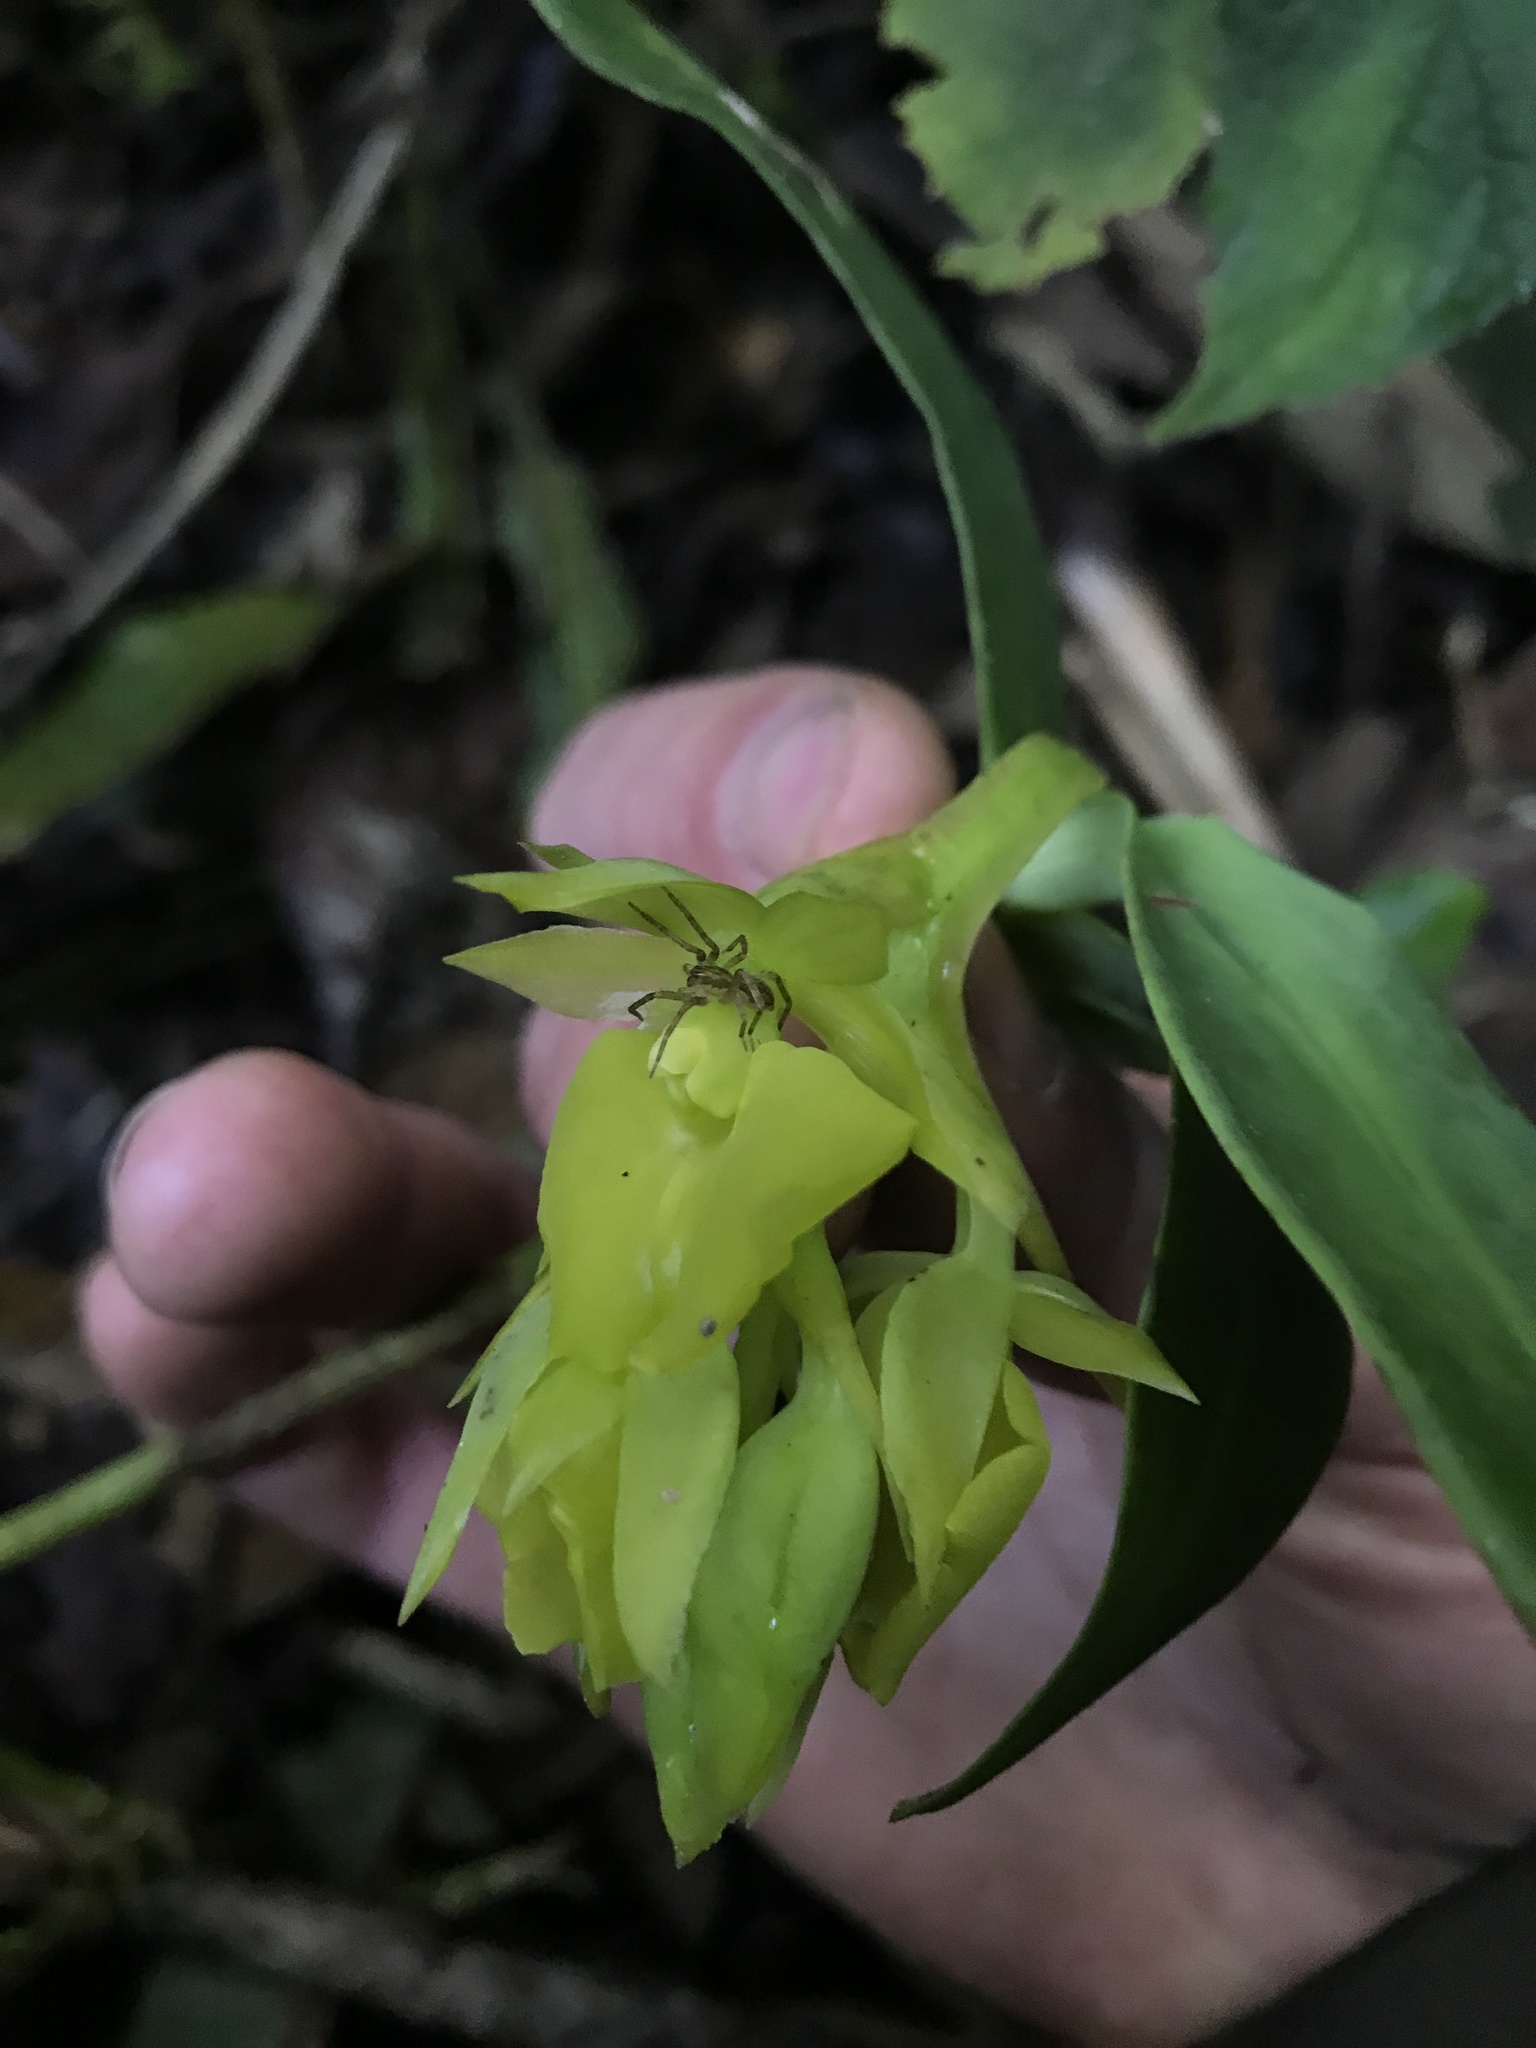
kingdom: Plantae
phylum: Tracheophyta
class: Liliopsida
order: Asparagales
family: Orchidaceae
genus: Epidendrum
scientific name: Epidendrum pfahlii
